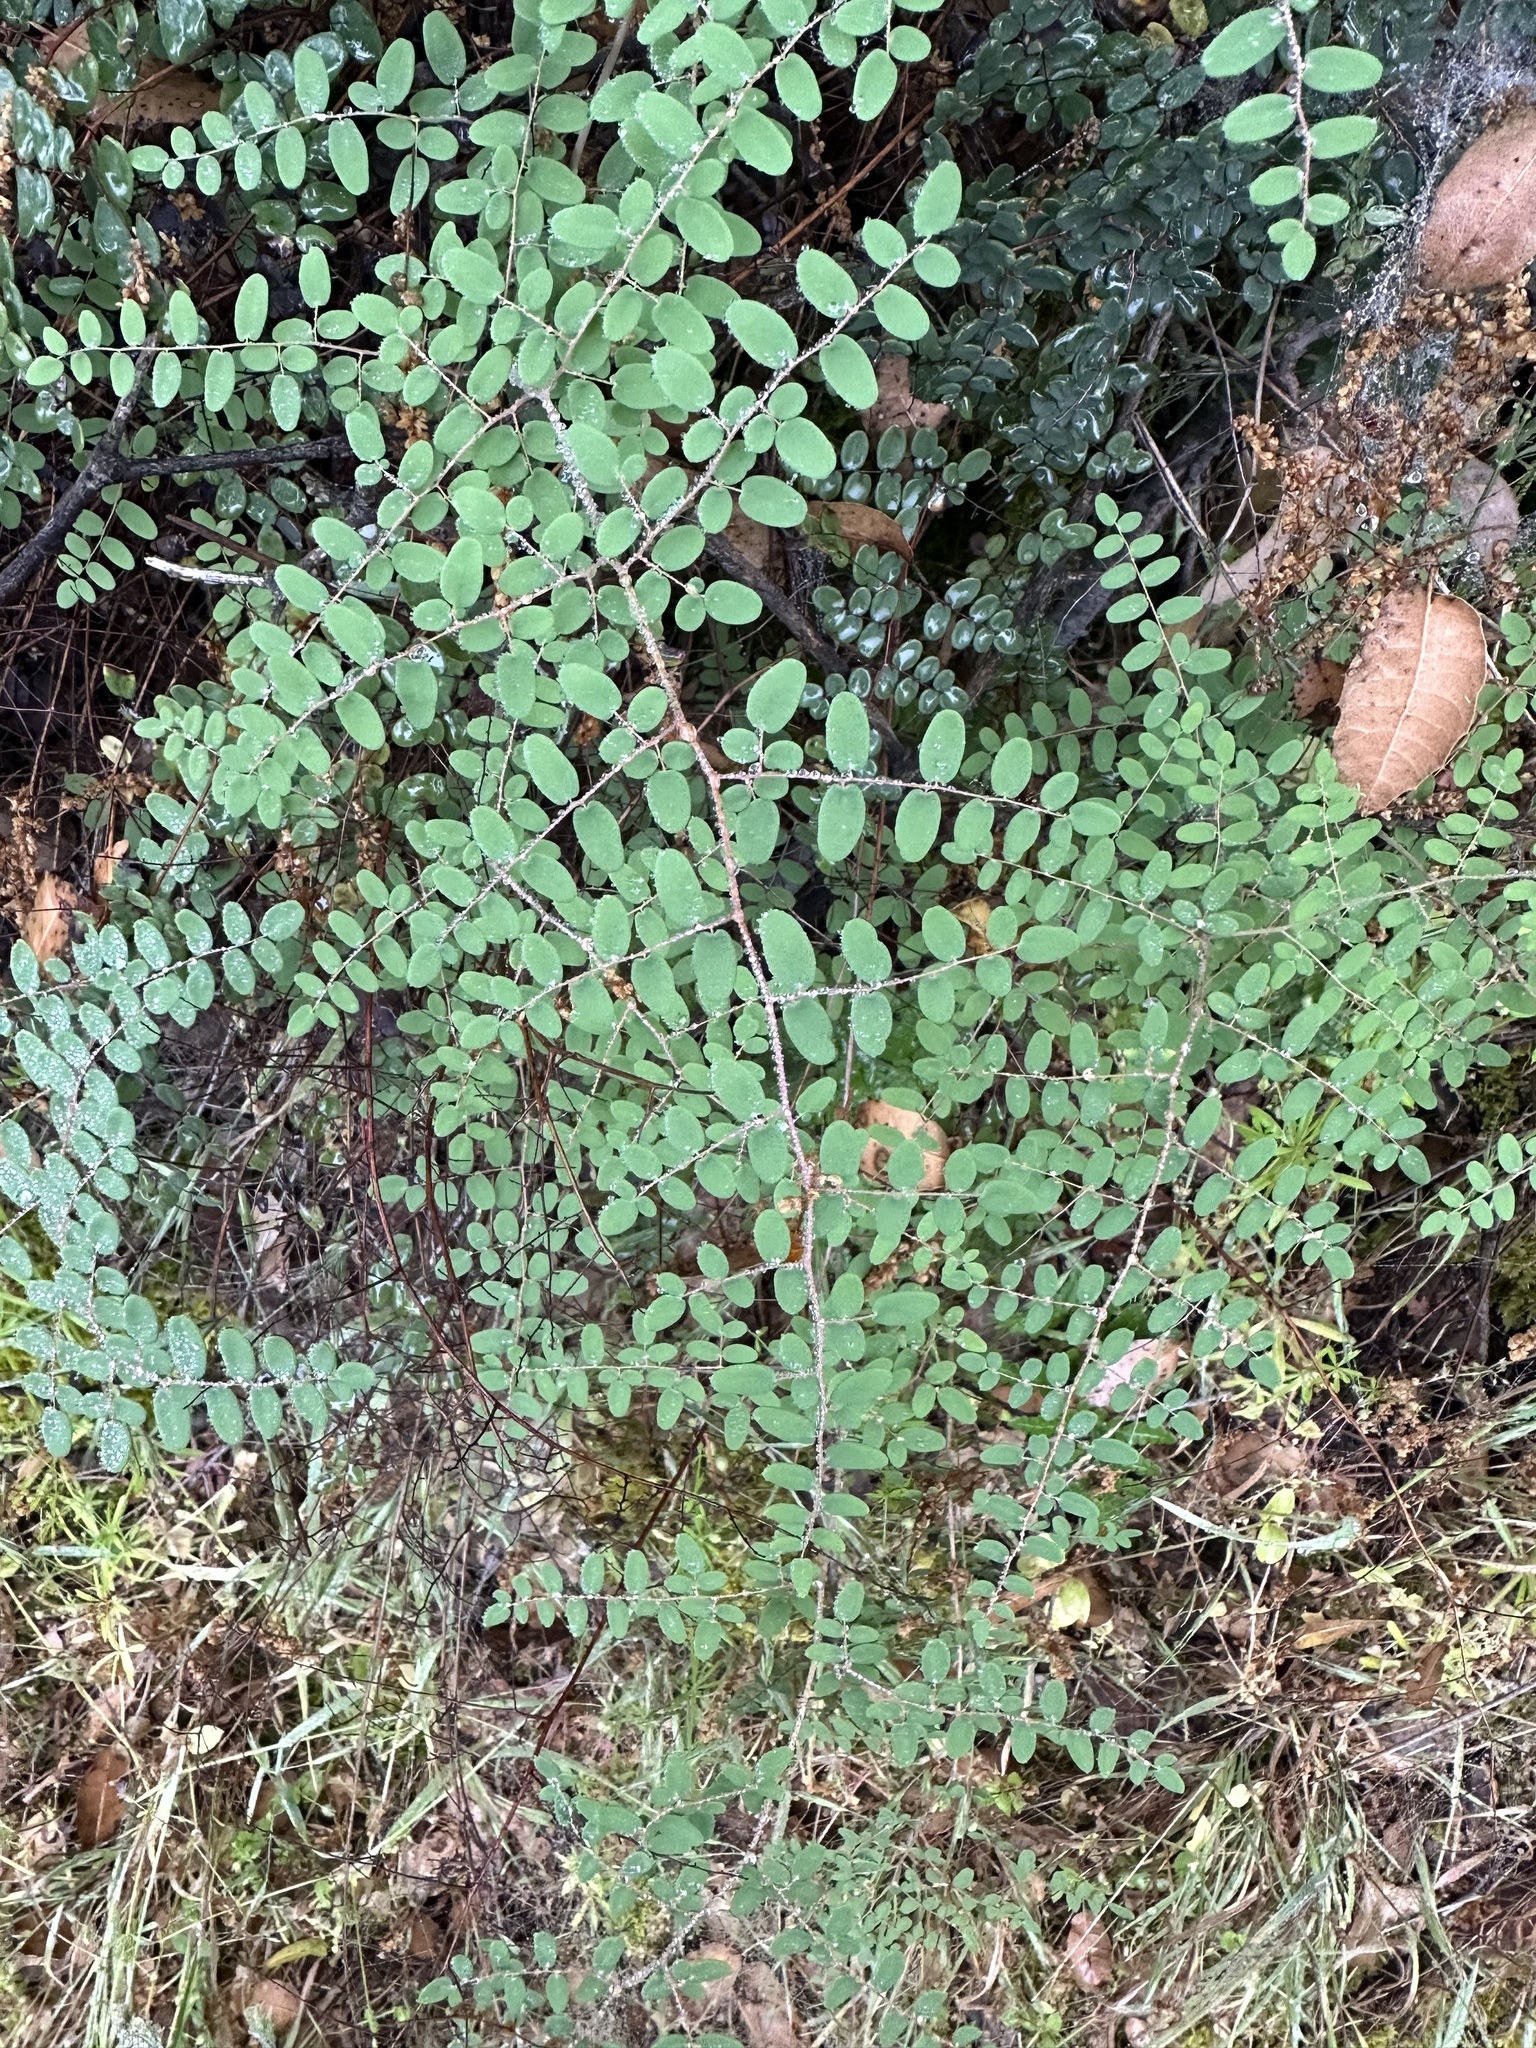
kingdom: Plantae
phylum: Tracheophyta
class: Polypodiopsida
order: Polypodiales
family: Pteridaceae
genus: Pellaea
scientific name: Pellaea andromedifolia
